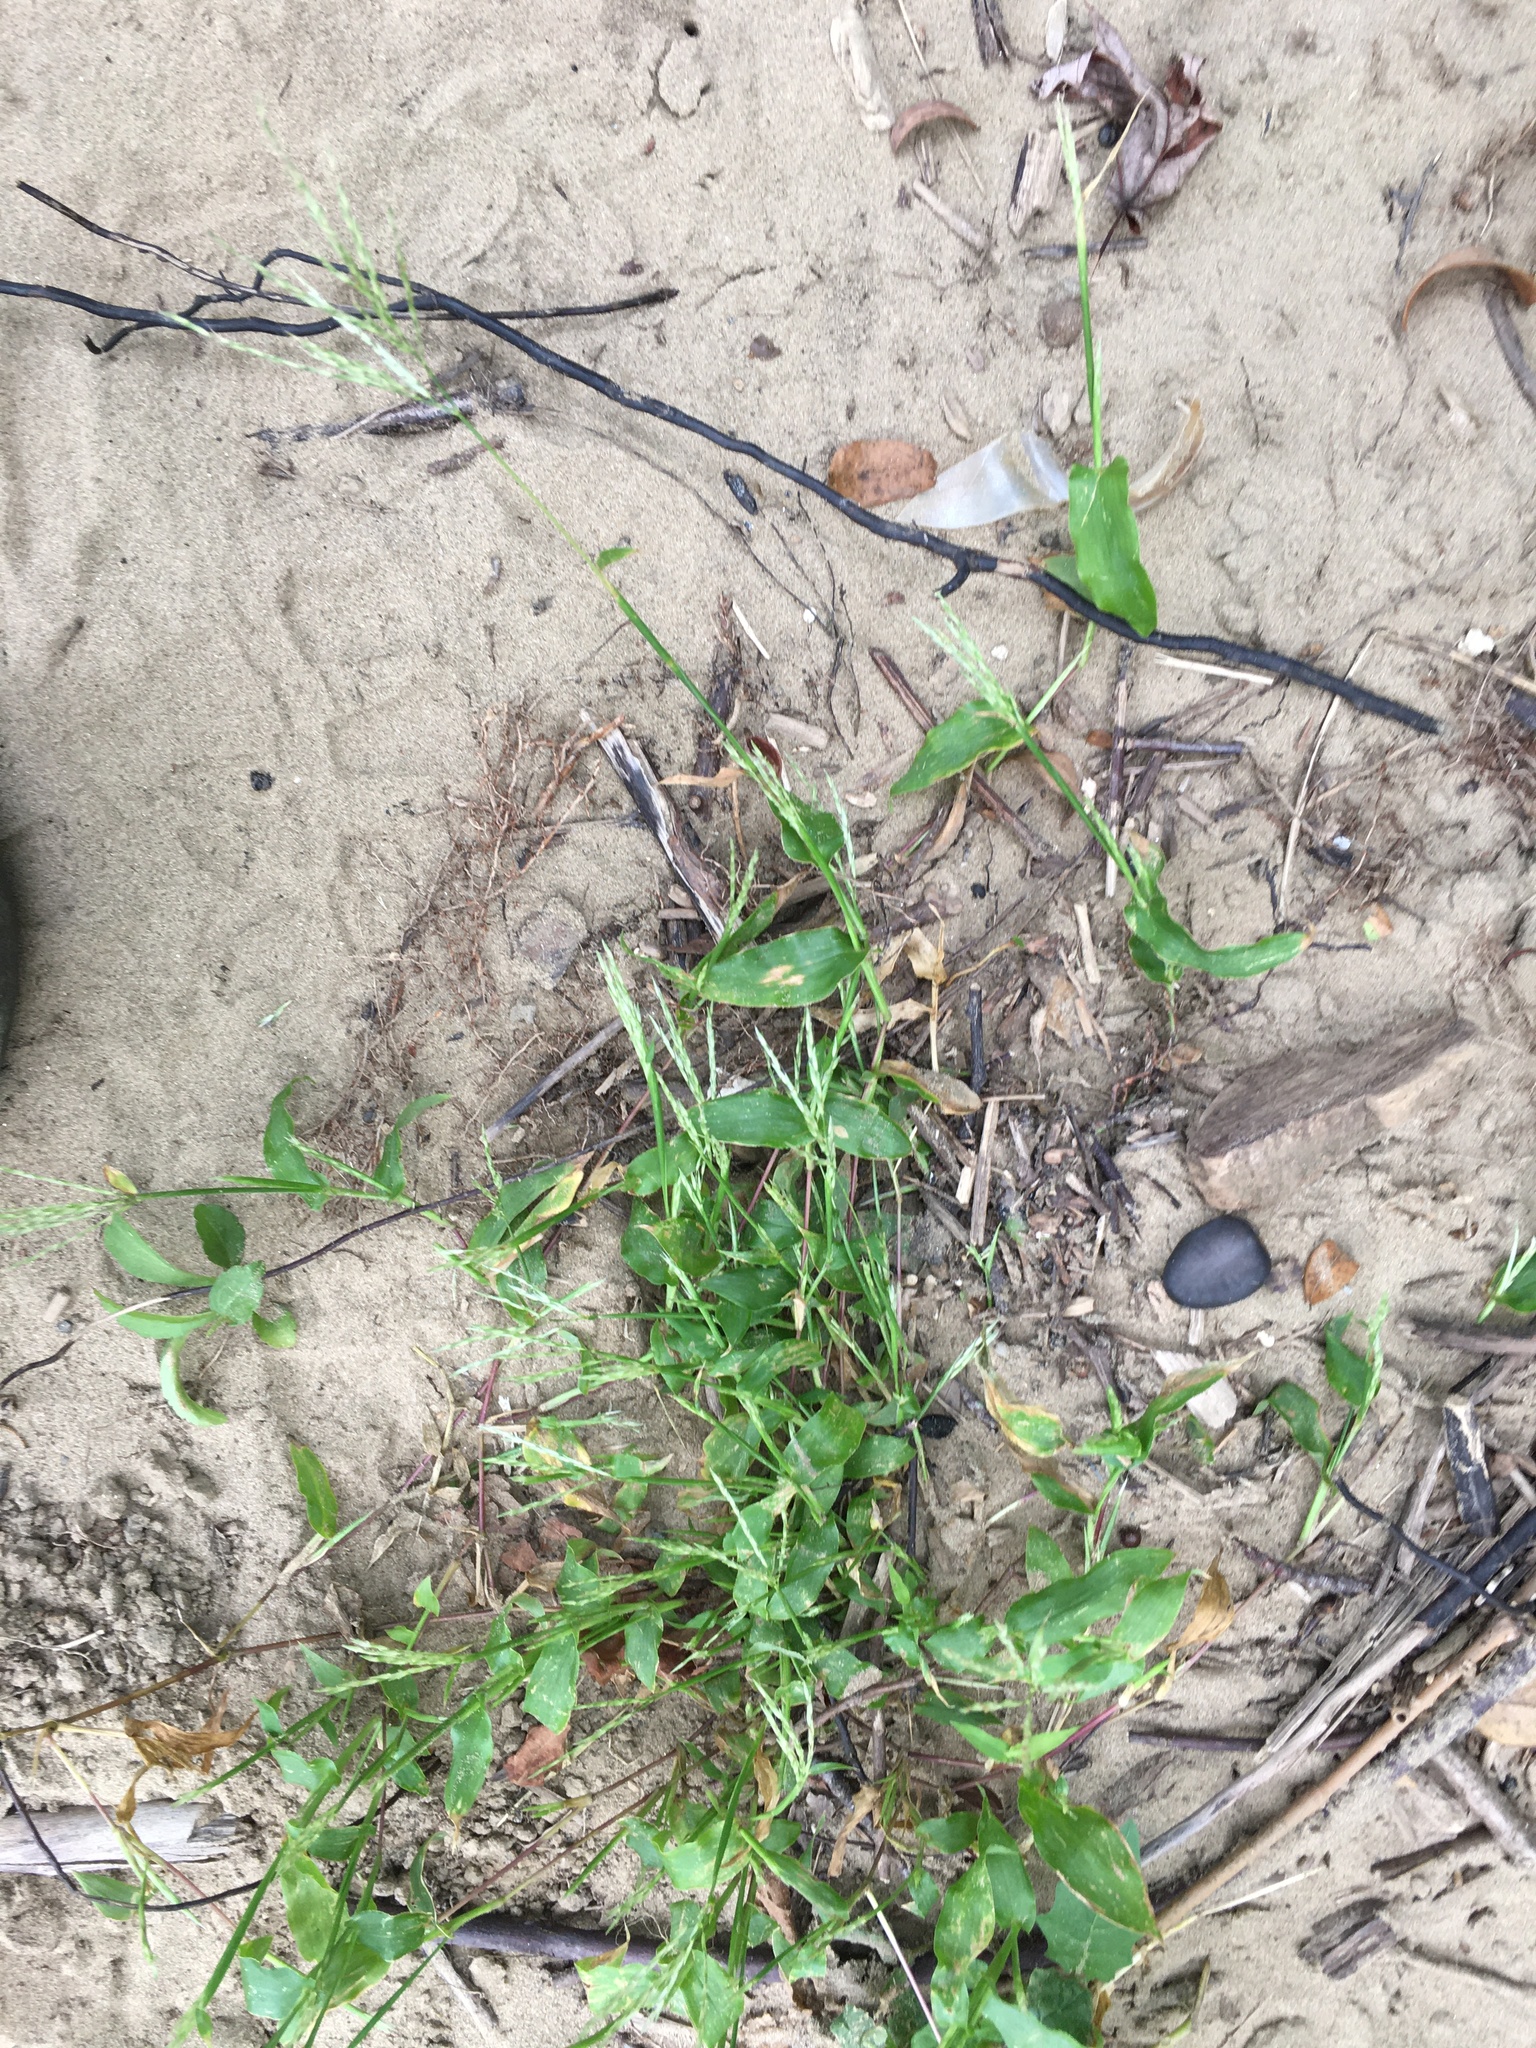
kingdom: Plantae
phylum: Tracheophyta
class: Liliopsida
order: Poales
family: Poaceae
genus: Arthraxon
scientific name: Arthraxon hispidus
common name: Small carpgrass
